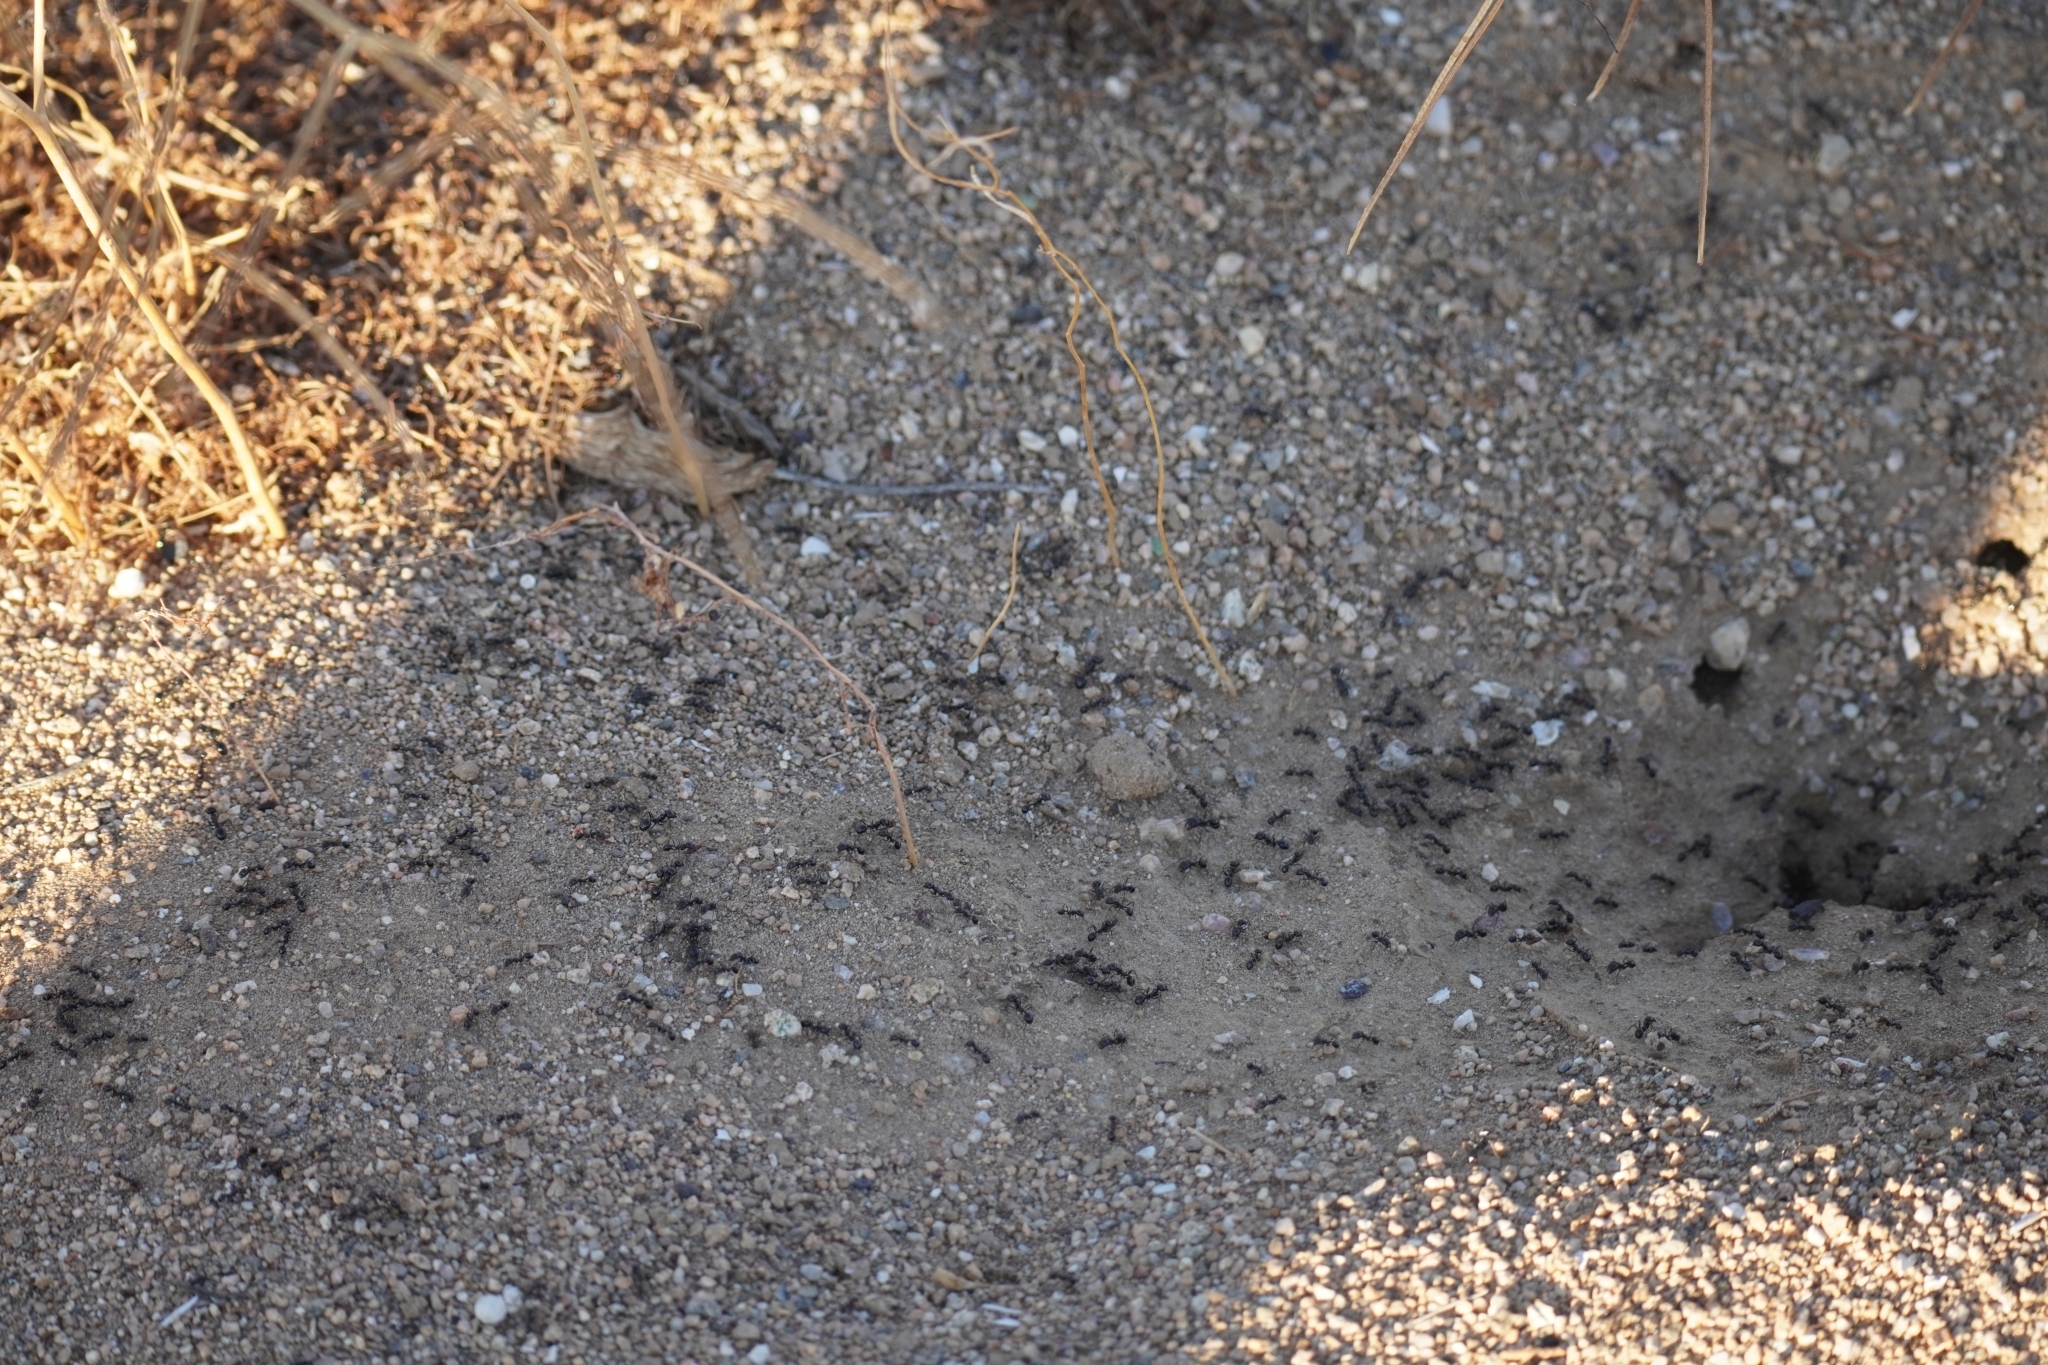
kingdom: Animalia
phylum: Arthropoda
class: Insecta
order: Hymenoptera
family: Formicidae
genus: Messor
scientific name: Messor pergandei
